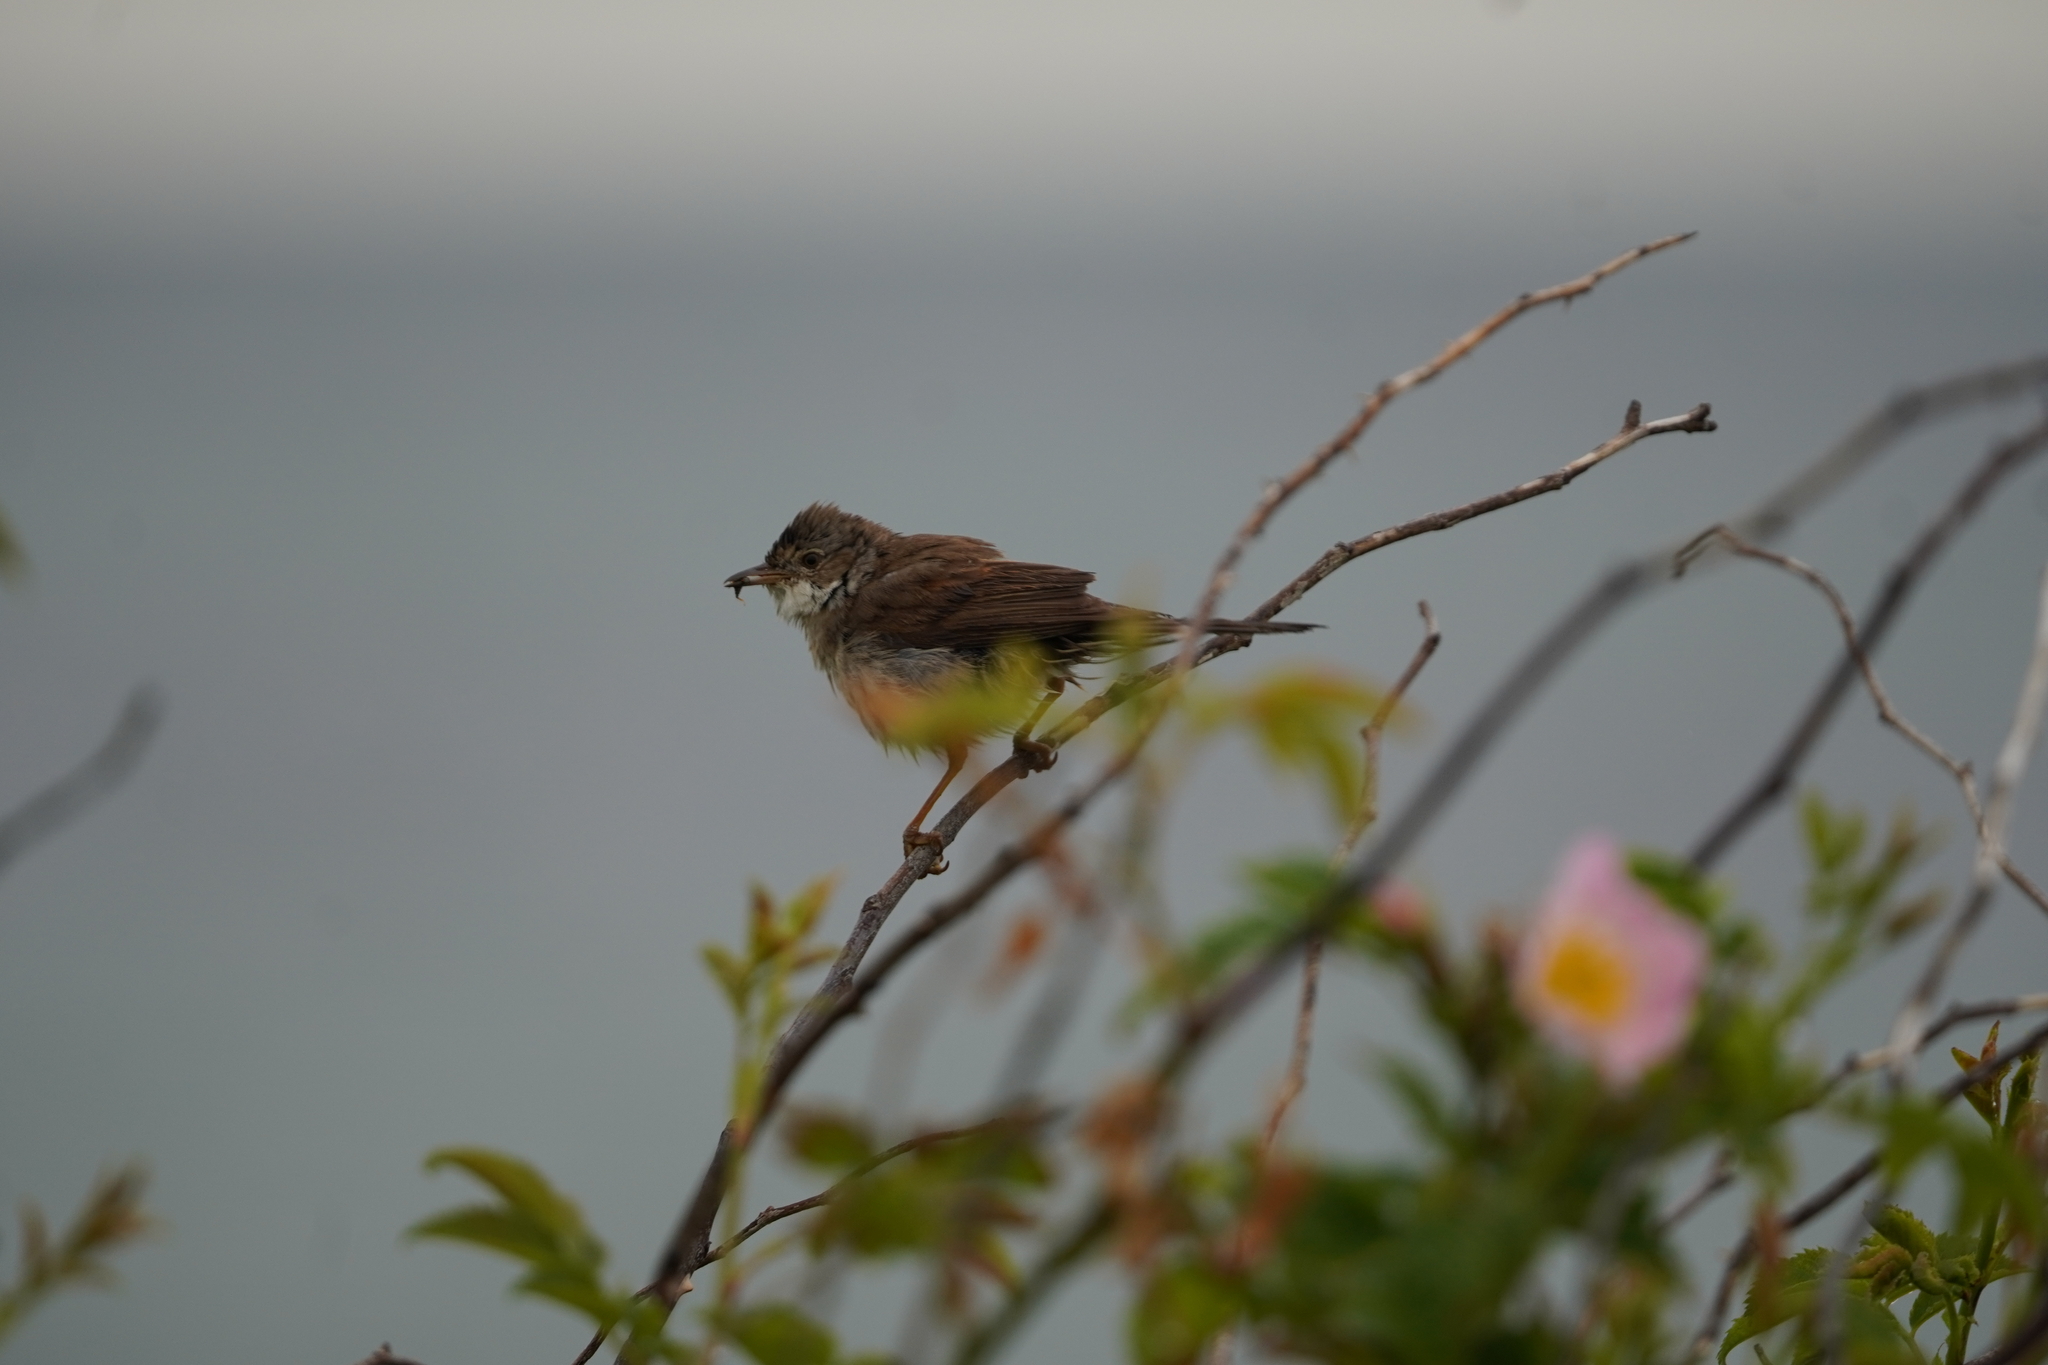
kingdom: Animalia
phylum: Chordata
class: Aves
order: Passeriformes
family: Sylviidae
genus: Sylvia
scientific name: Sylvia communis
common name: Common whitethroat
